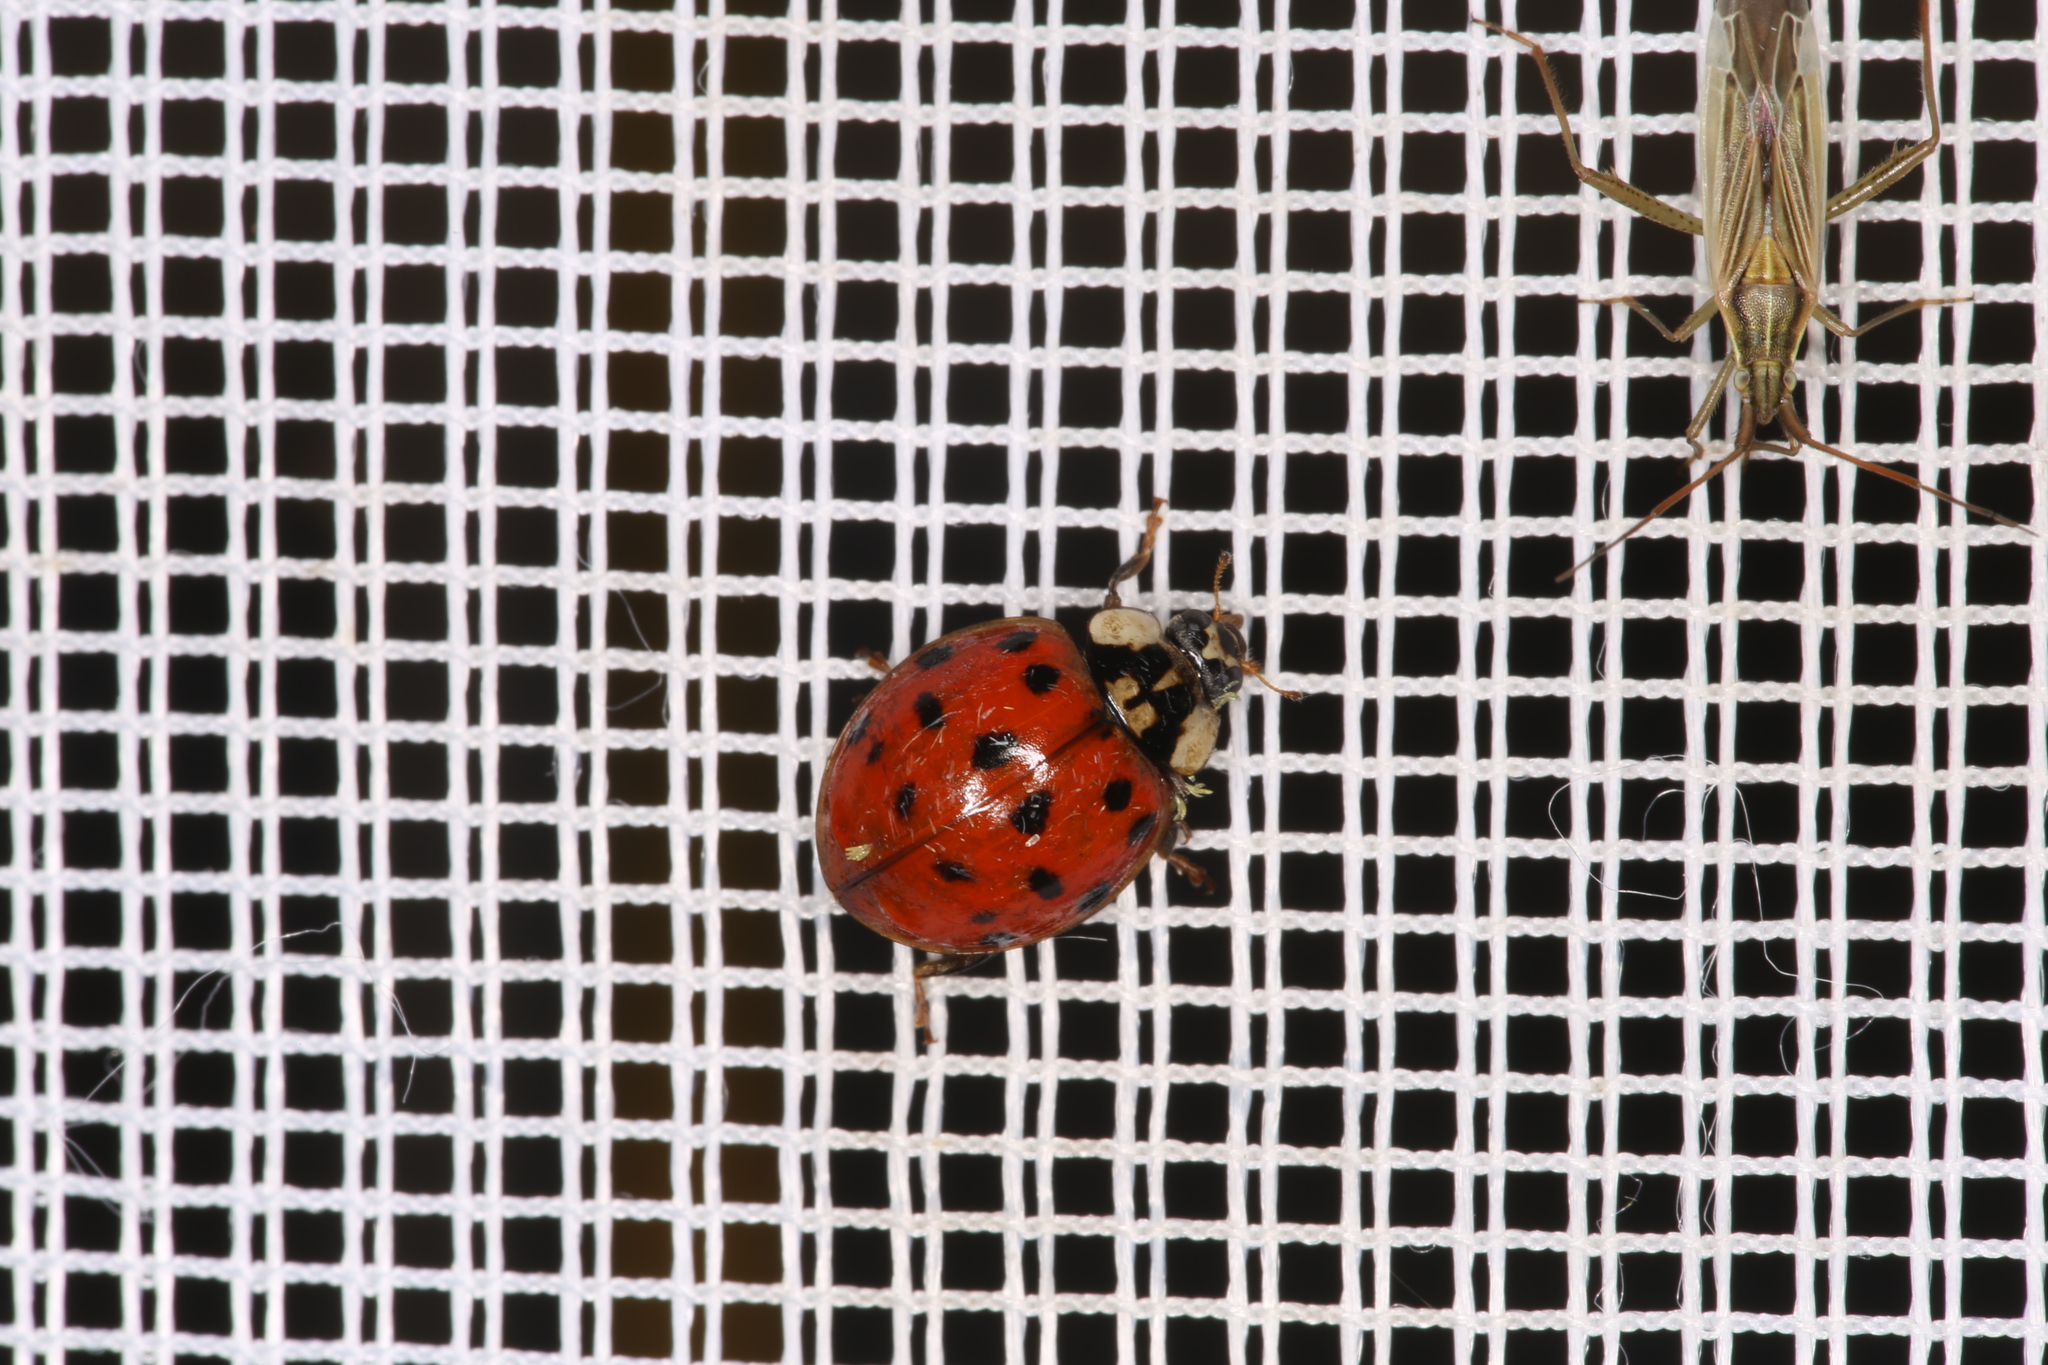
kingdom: Animalia
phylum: Arthropoda
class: Insecta
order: Coleoptera
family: Coccinellidae
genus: Harmonia
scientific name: Harmonia axyridis
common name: Harlequin ladybird
